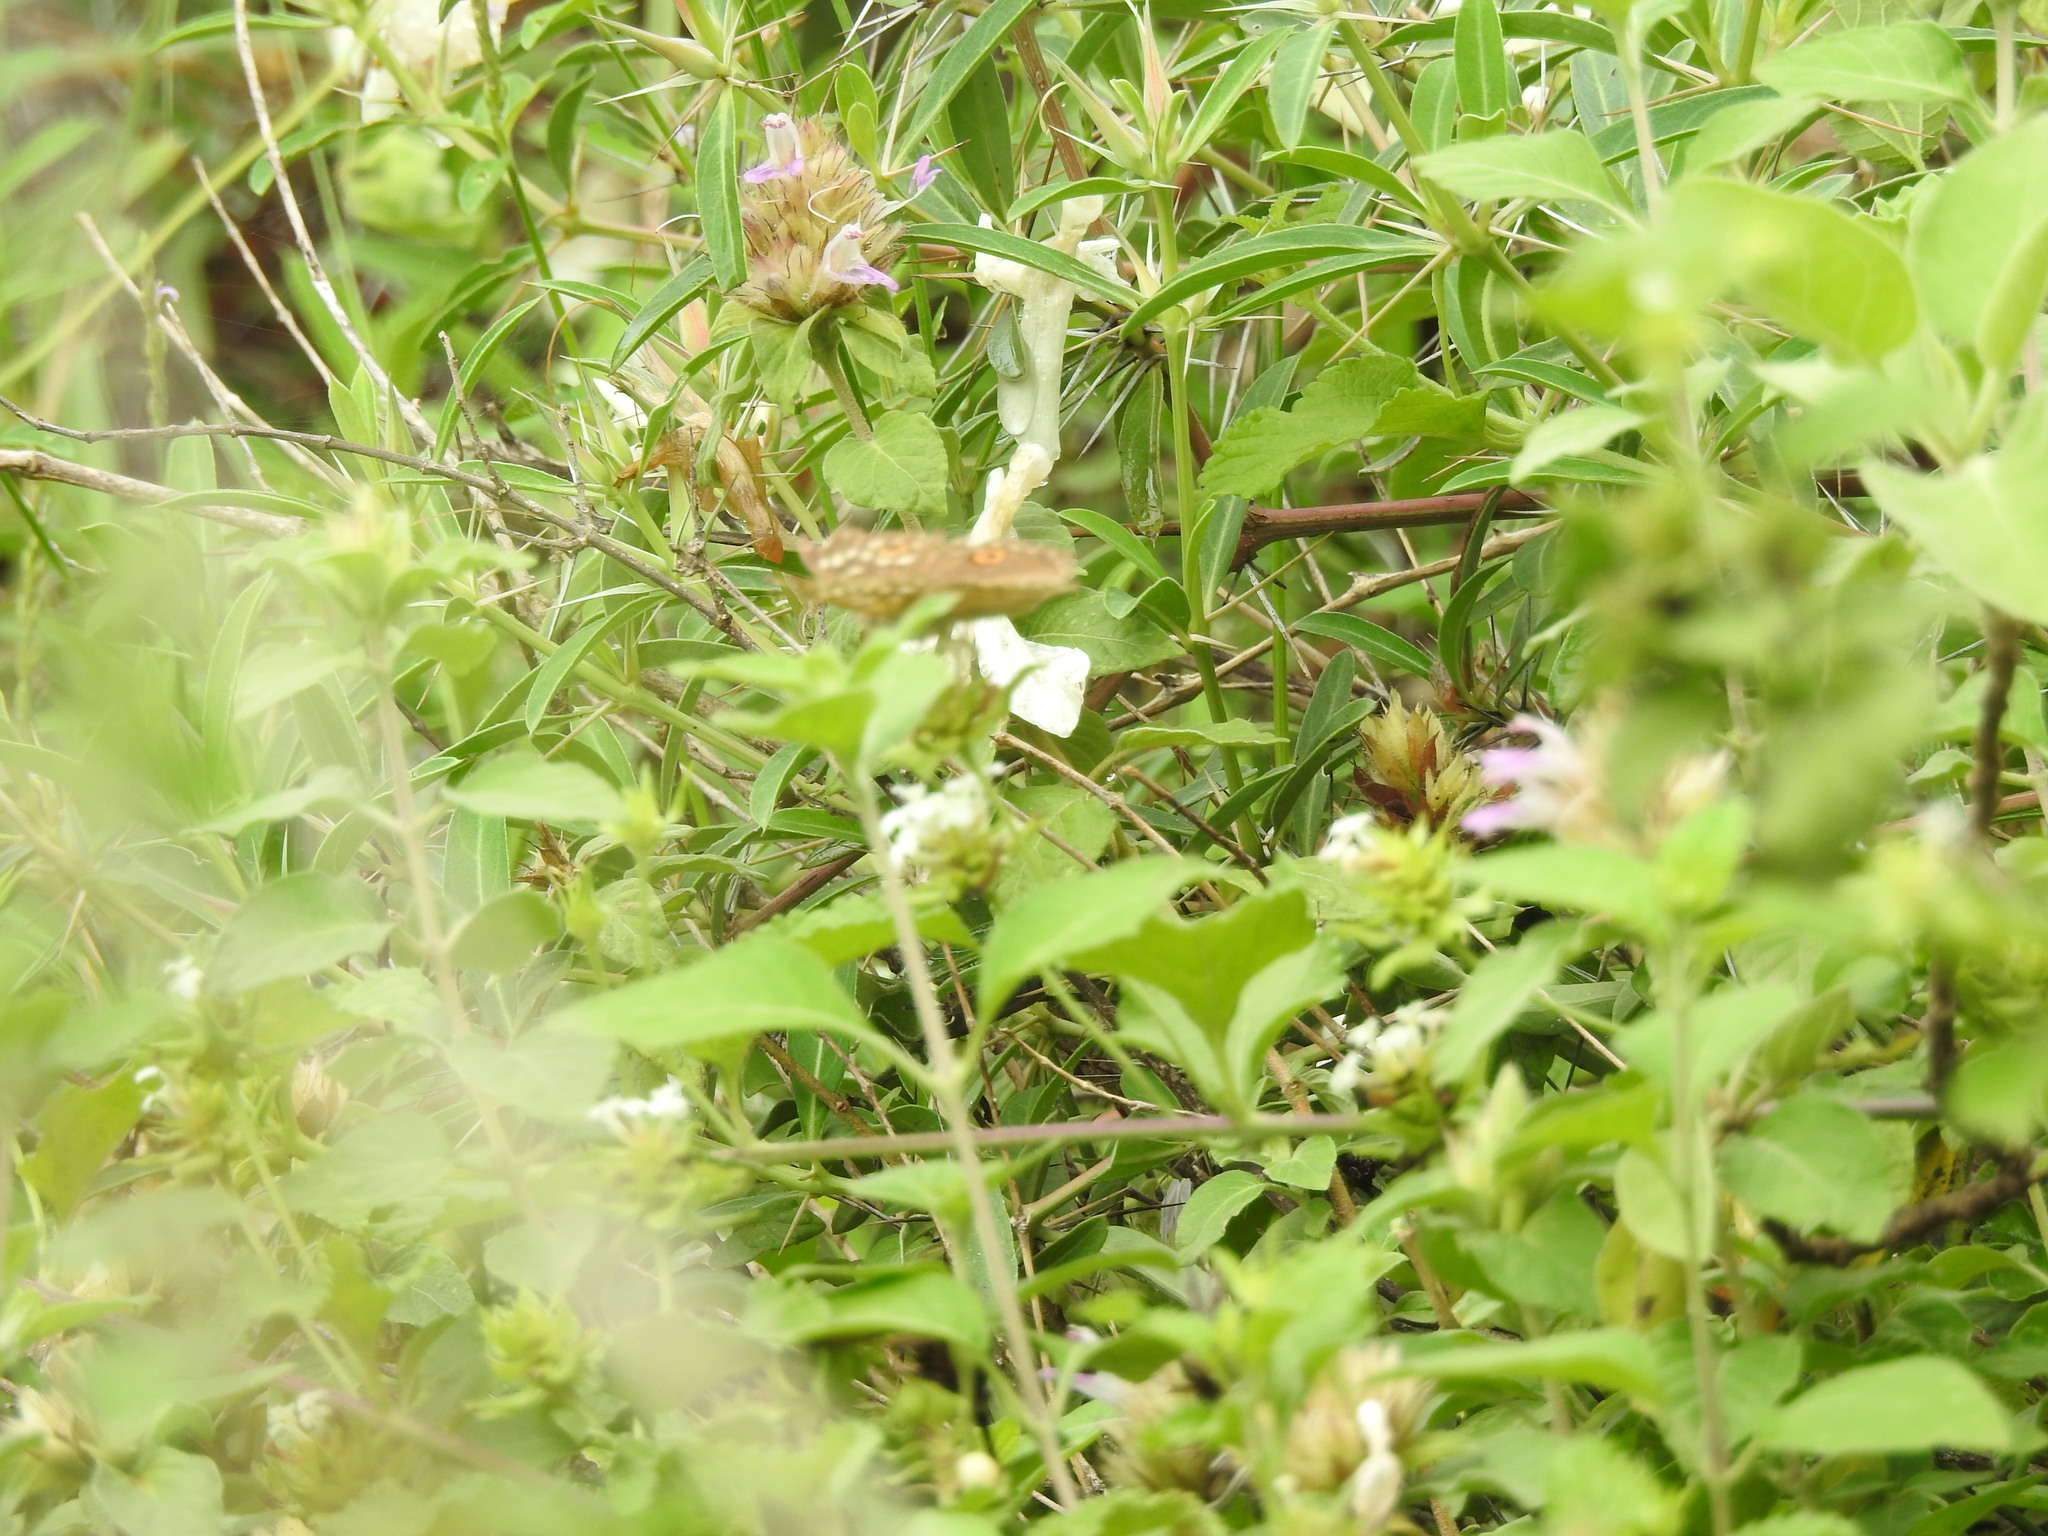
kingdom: Animalia
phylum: Arthropoda
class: Insecta
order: Lepidoptera
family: Nymphalidae
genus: Junonia
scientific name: Junonia lemonias
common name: Lemon pansy
